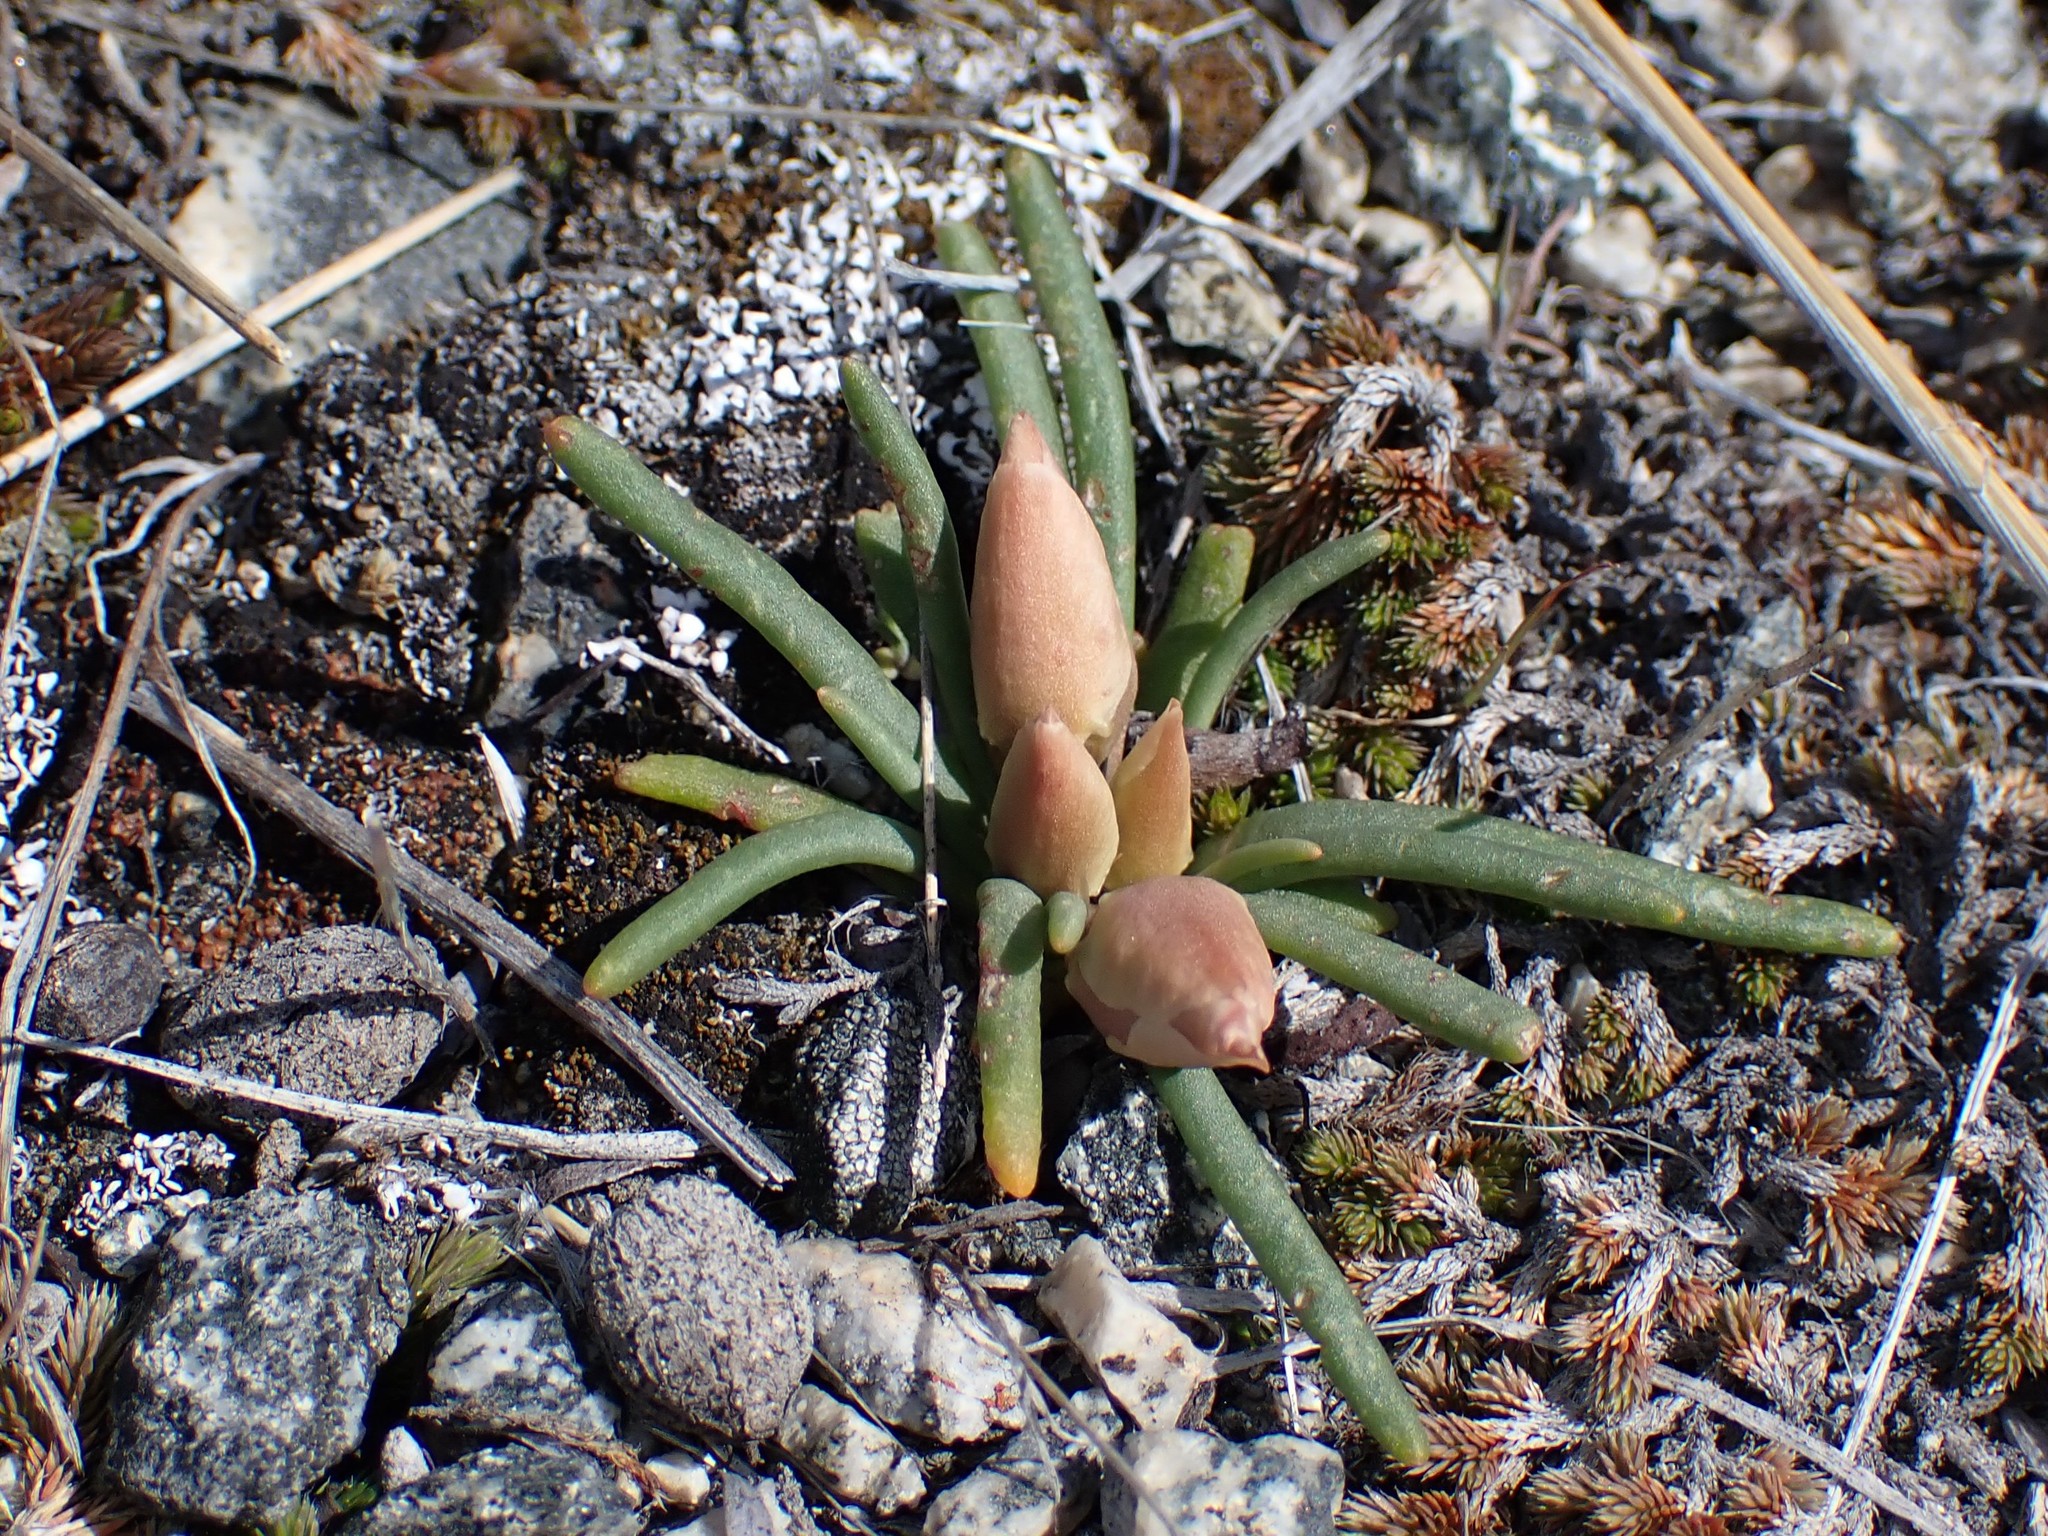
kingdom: Plantae
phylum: Tracheophyta
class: Magnoliopsida
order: Caryophyllales
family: Montiaceae
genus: Lewisia
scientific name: Lewisia rediviva
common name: Bitter-root
